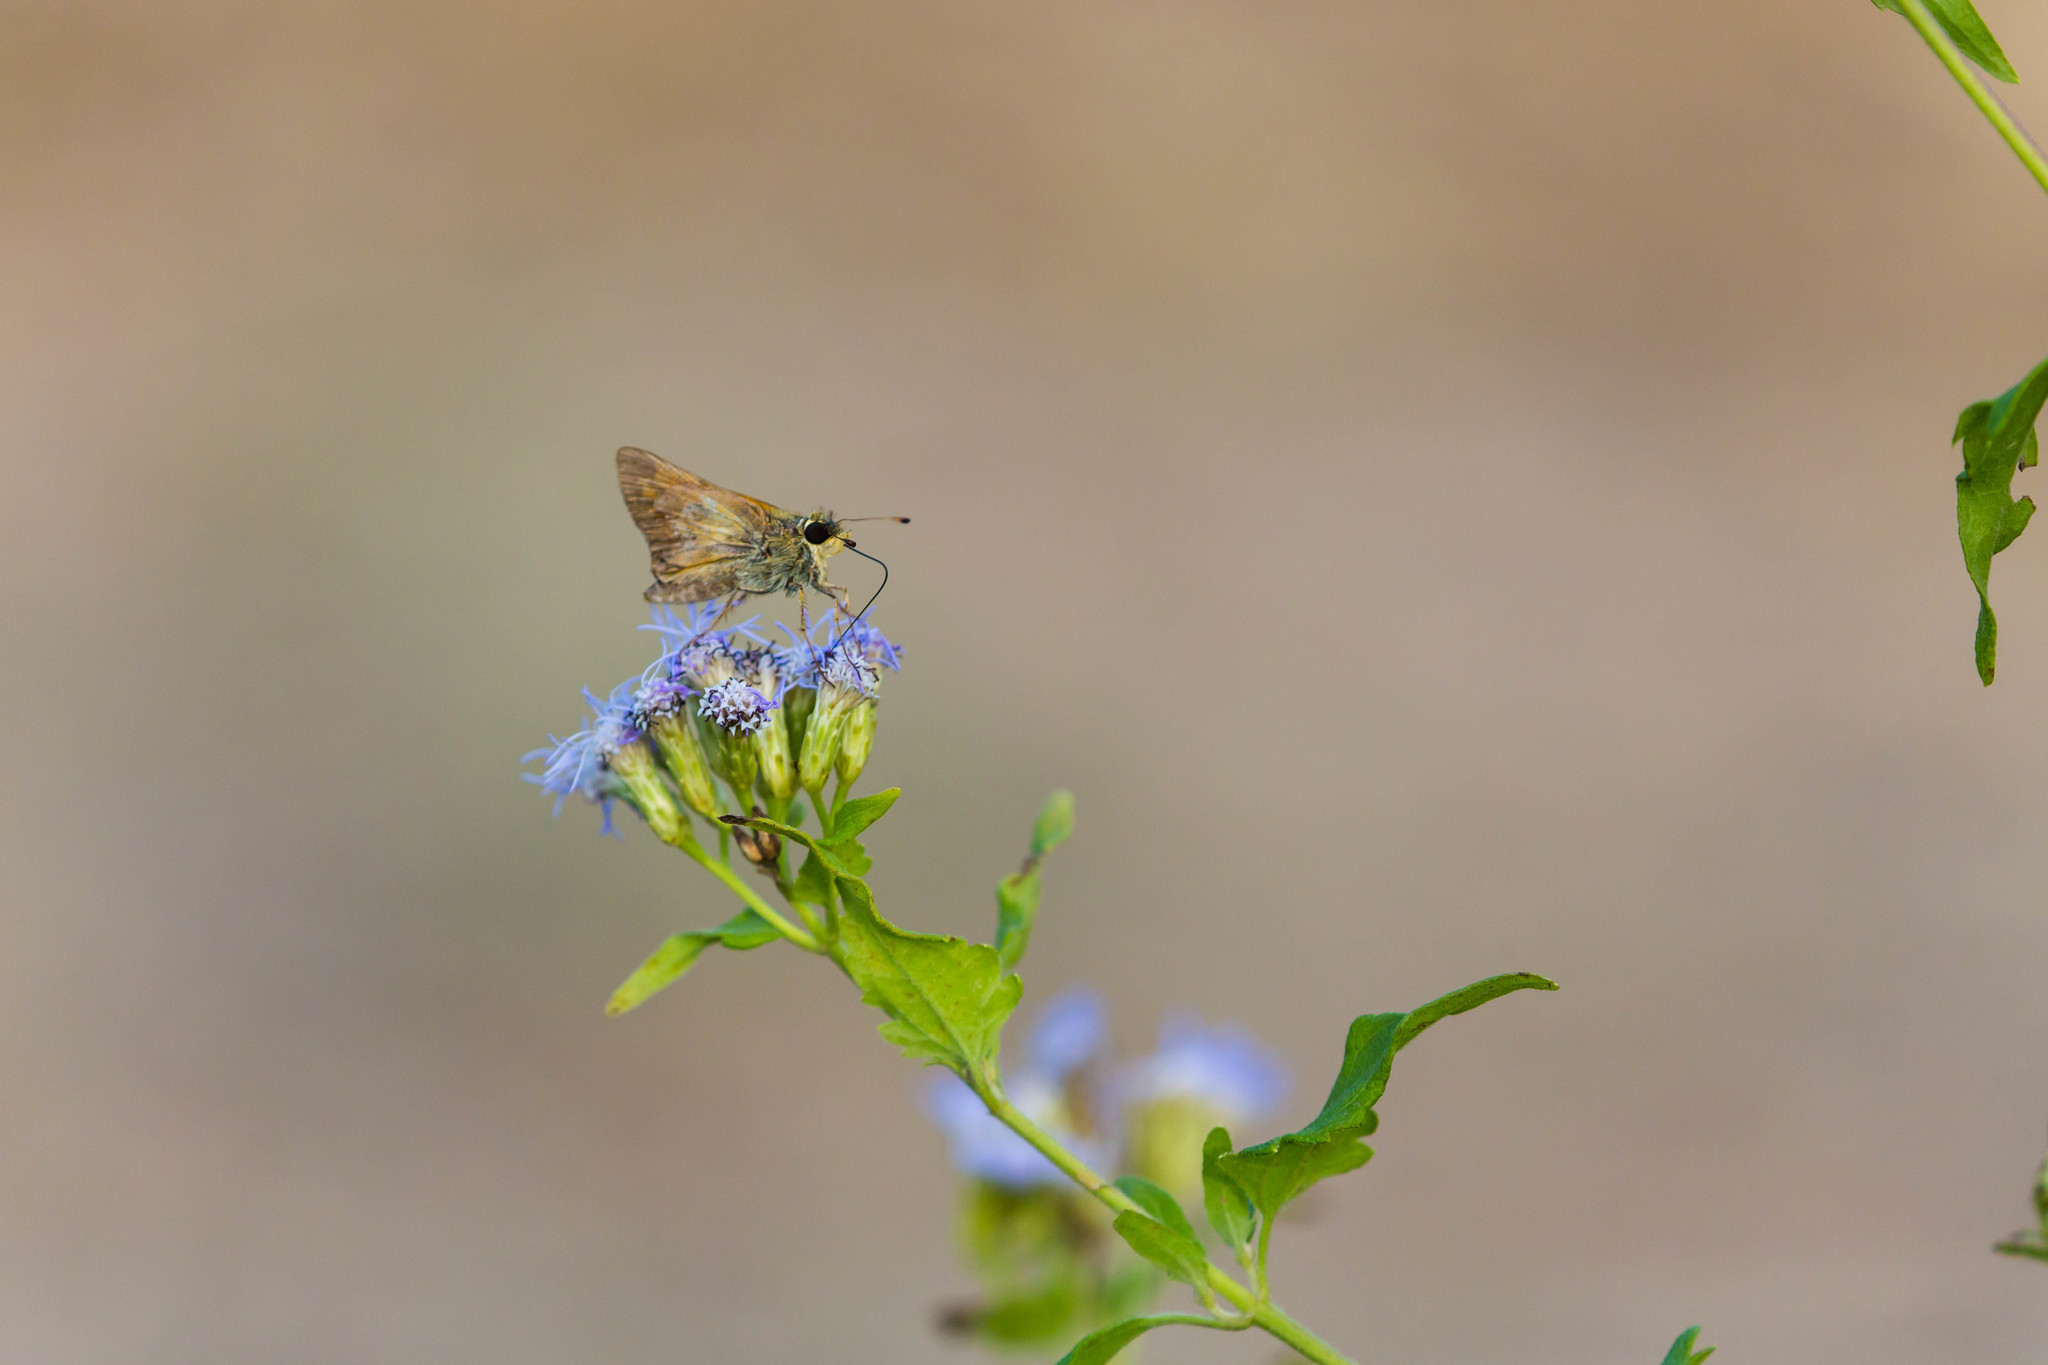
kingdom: Animalia
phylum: Arthropoda
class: Insecta
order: Lepidoptera
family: Hesperiidae
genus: Atalopedes
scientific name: Atalopedes
